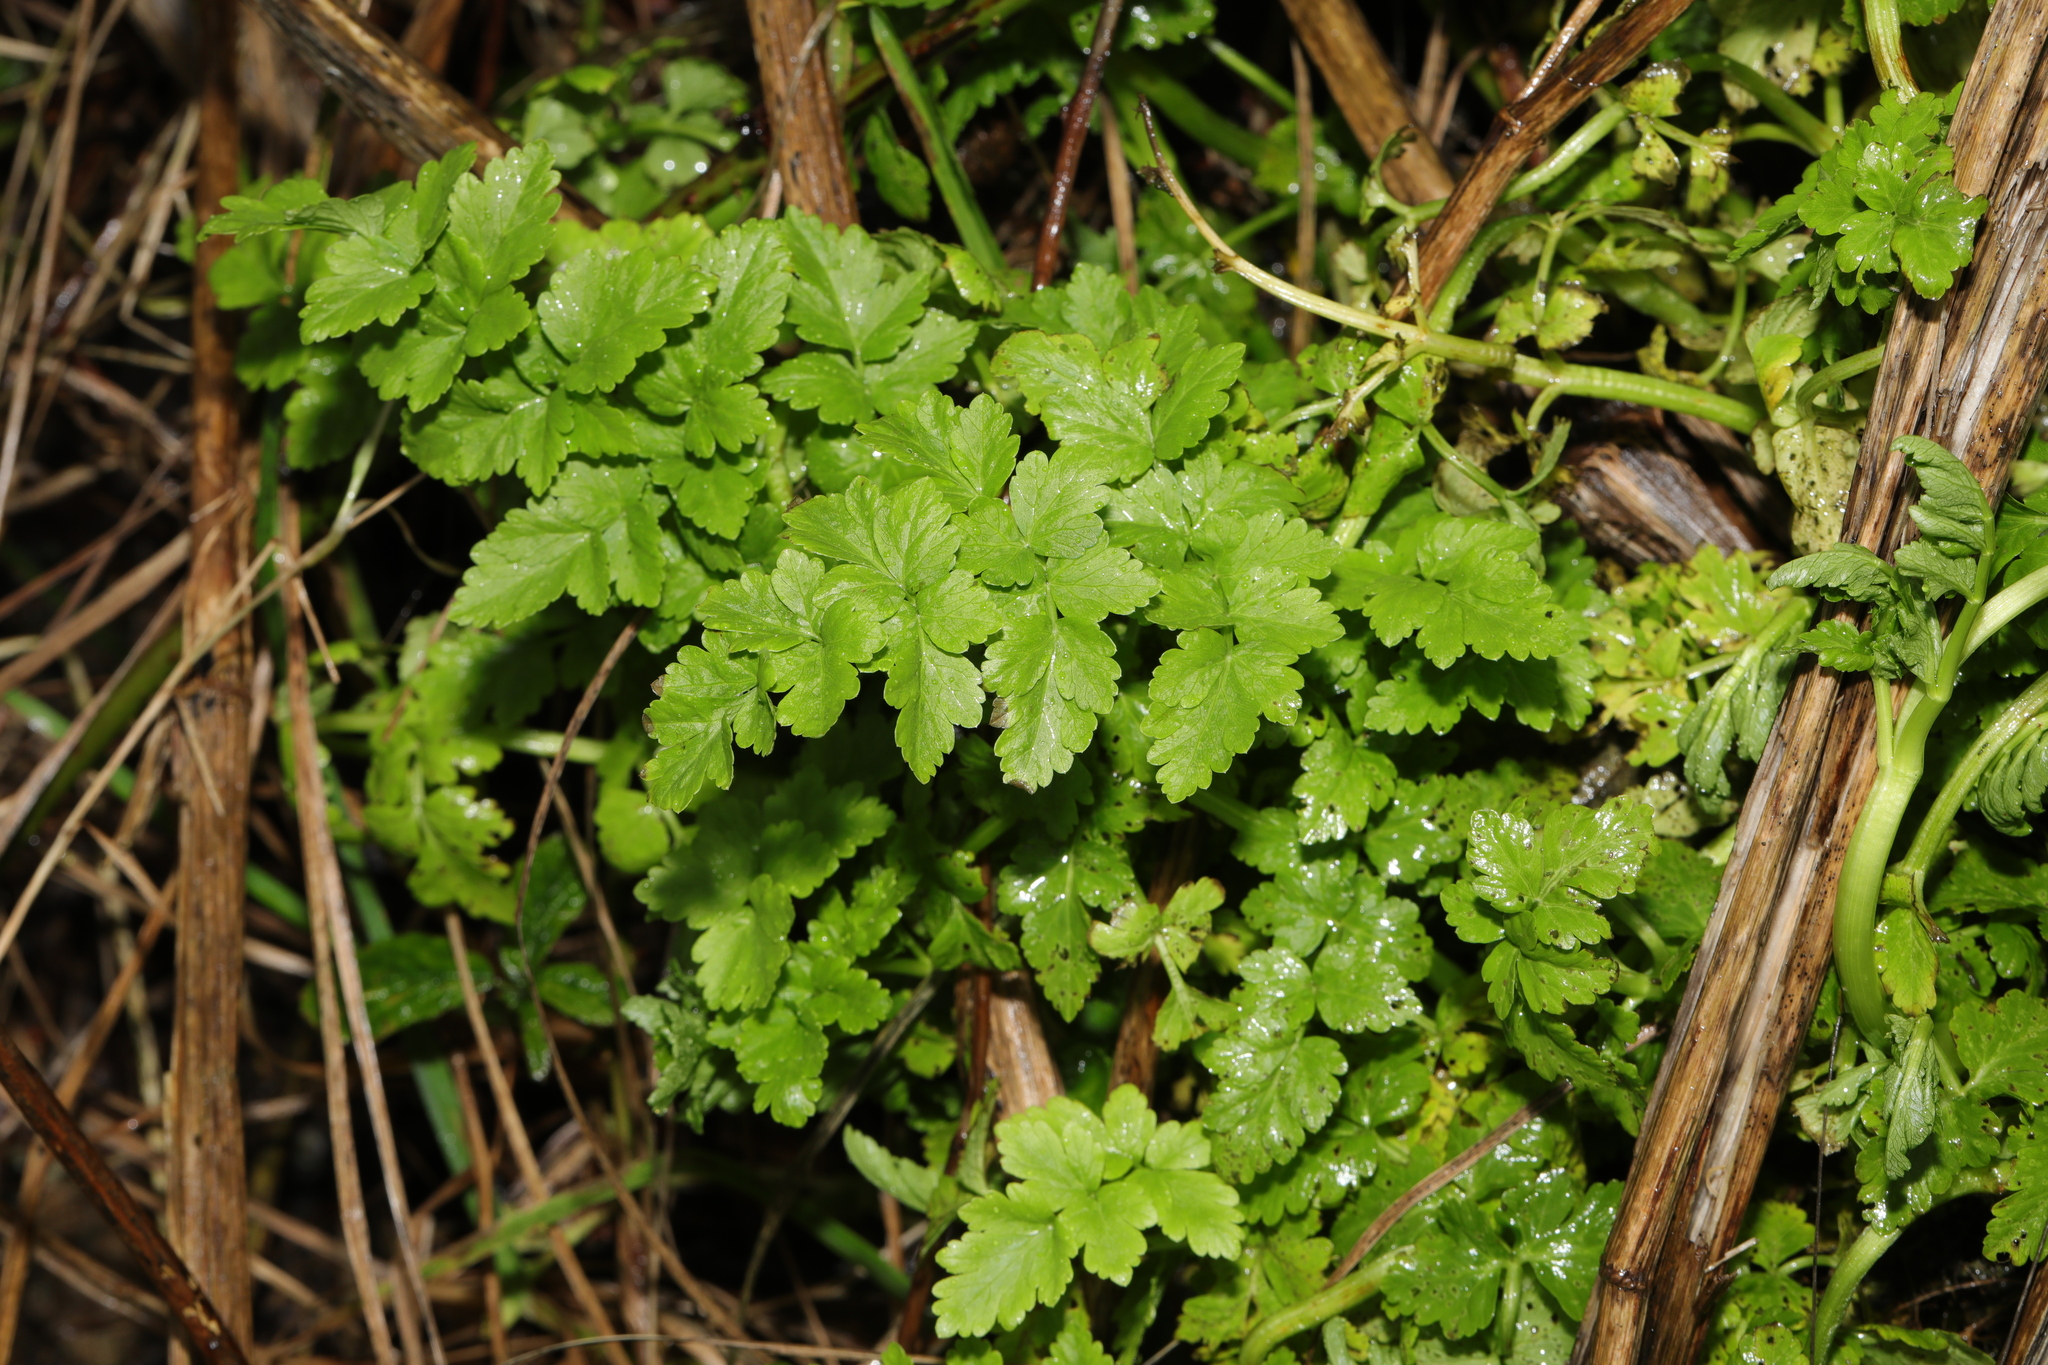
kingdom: Plantae
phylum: Tracheophyta
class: Magnoliopsida
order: Apiales
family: Apiaceae
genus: Oenanthe
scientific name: Oenanthe crocata
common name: Hemlock water-dropwort
